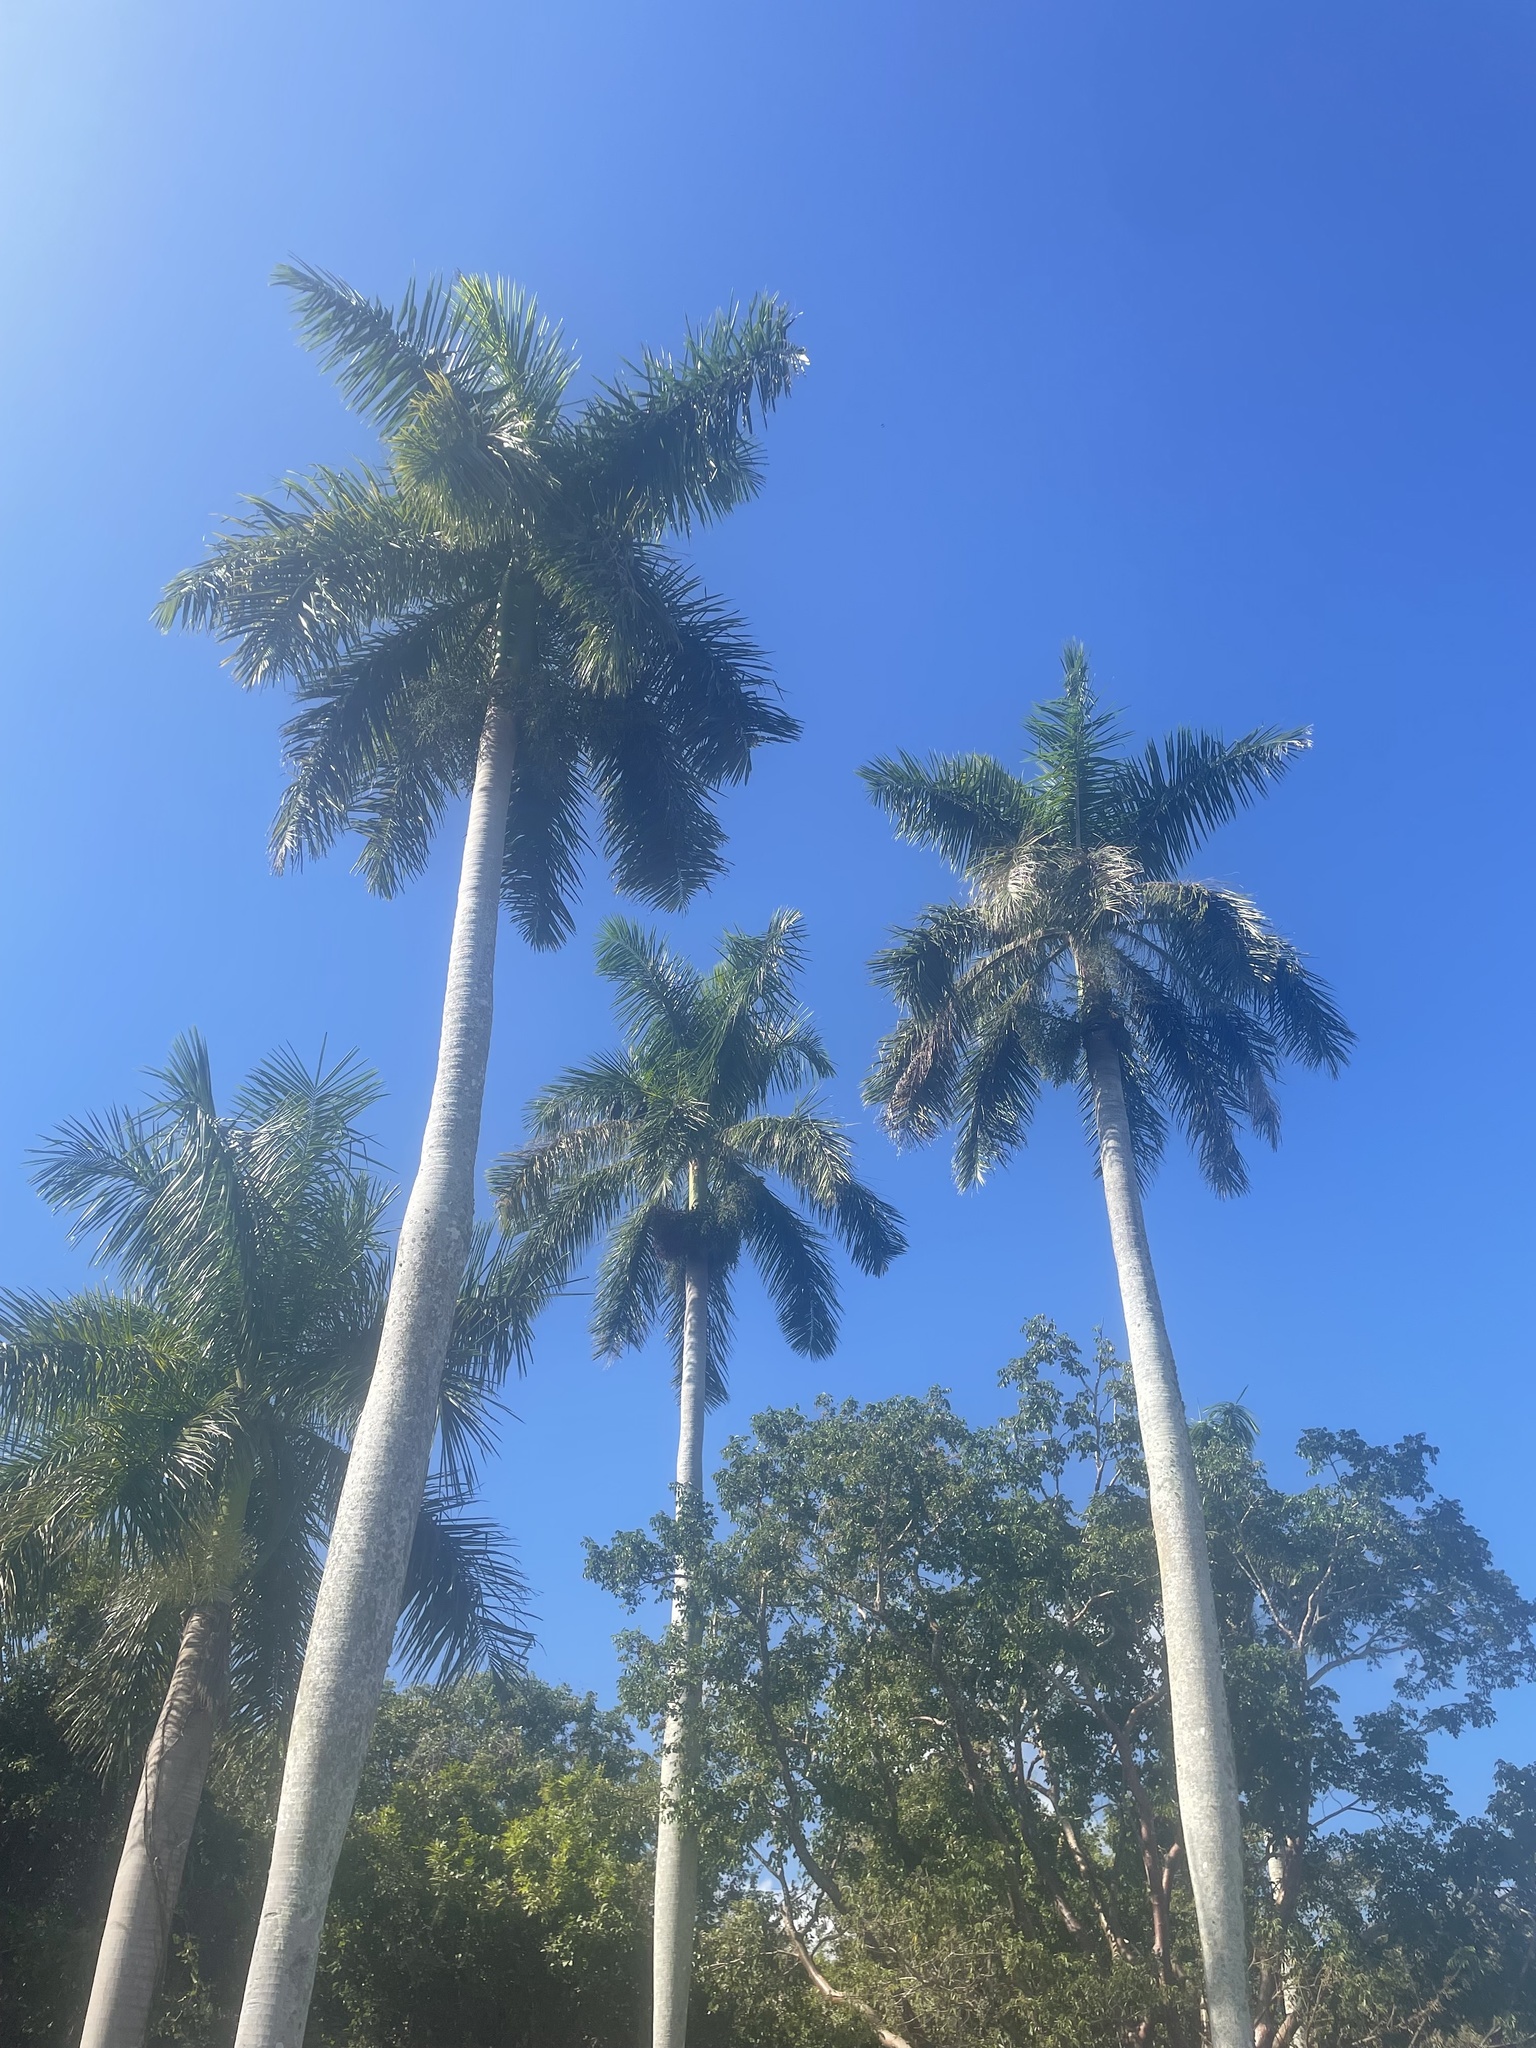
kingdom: Plantae
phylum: Tracheophyta
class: Liliopsida
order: Arecales
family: Arecaceae
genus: Roystonea
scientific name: Roystonea regia
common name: Florida royal palm
